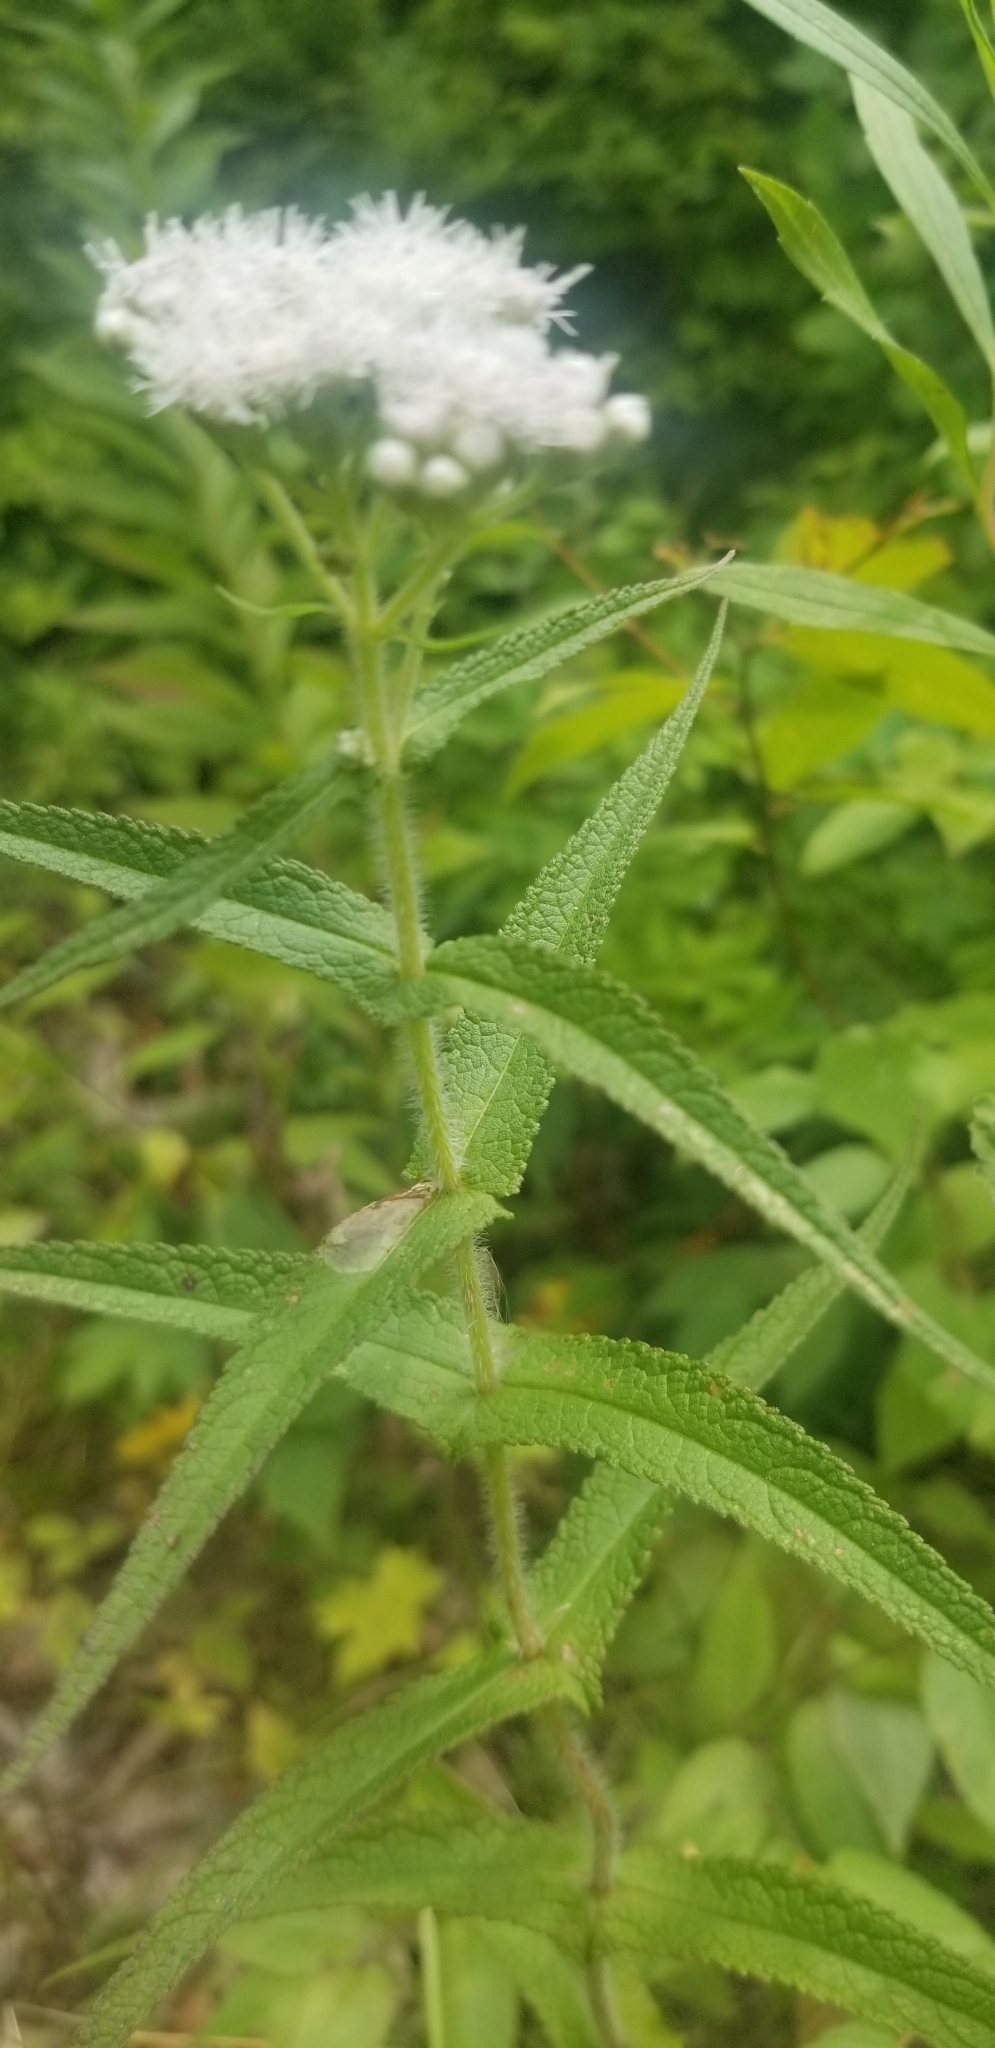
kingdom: Plantae
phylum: Tracheophyta
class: Magnoliopsida
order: Asterales
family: Asteraceae
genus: Eupatorium
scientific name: Eupatorium perfoliatum
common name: Boneset
